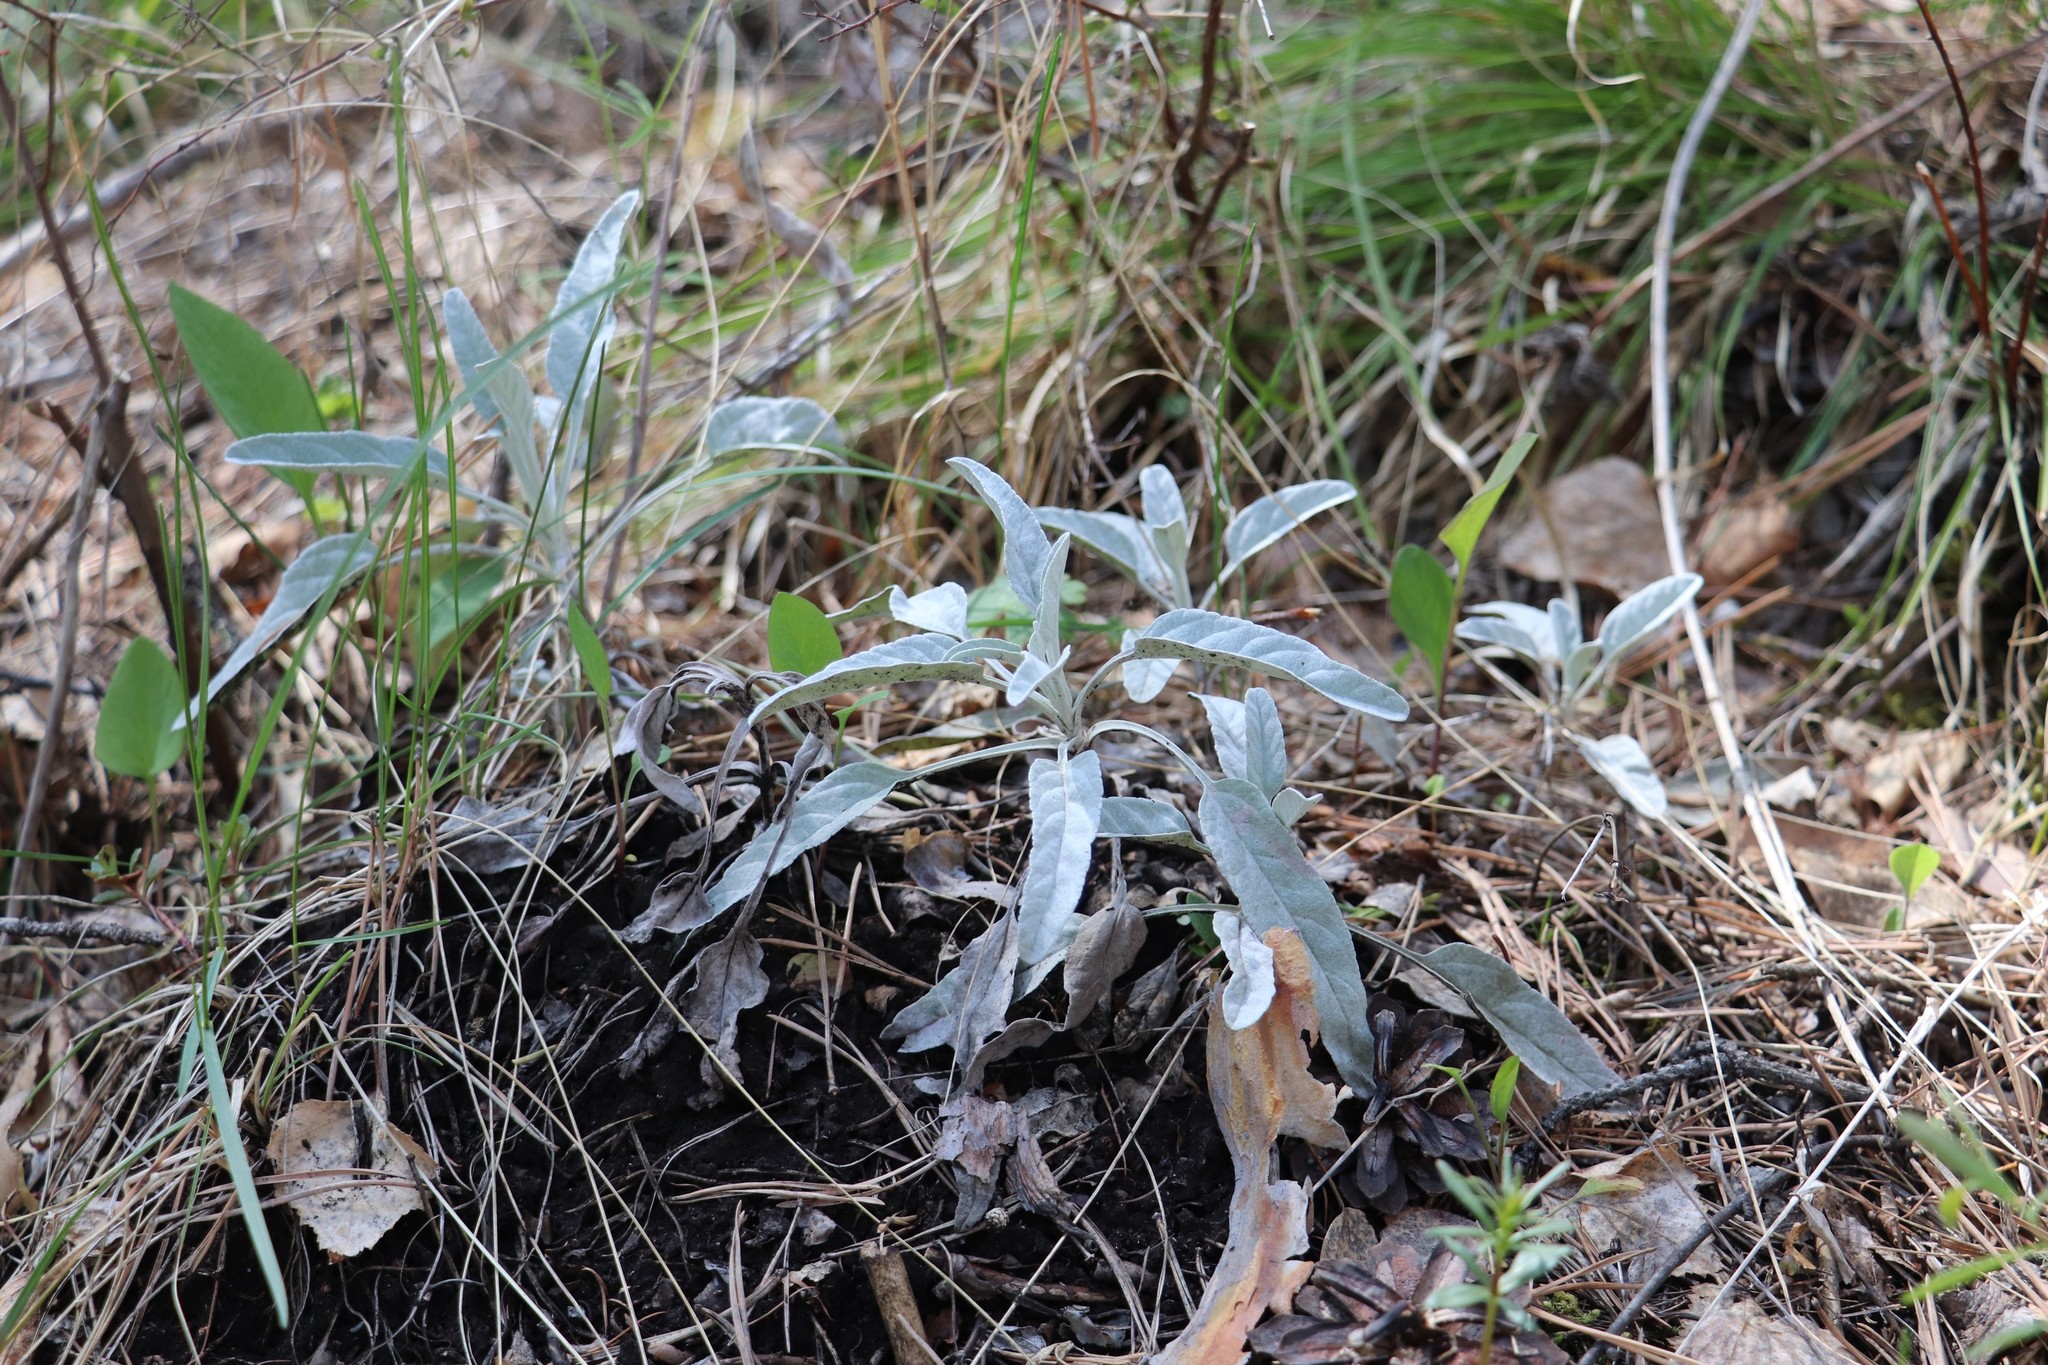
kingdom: Plantae
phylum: Tracheophyta
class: Magnoliopsida
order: Lamiales
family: Plantaginaceae
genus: Veronica
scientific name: Veronica incana
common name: Silver speedwell
